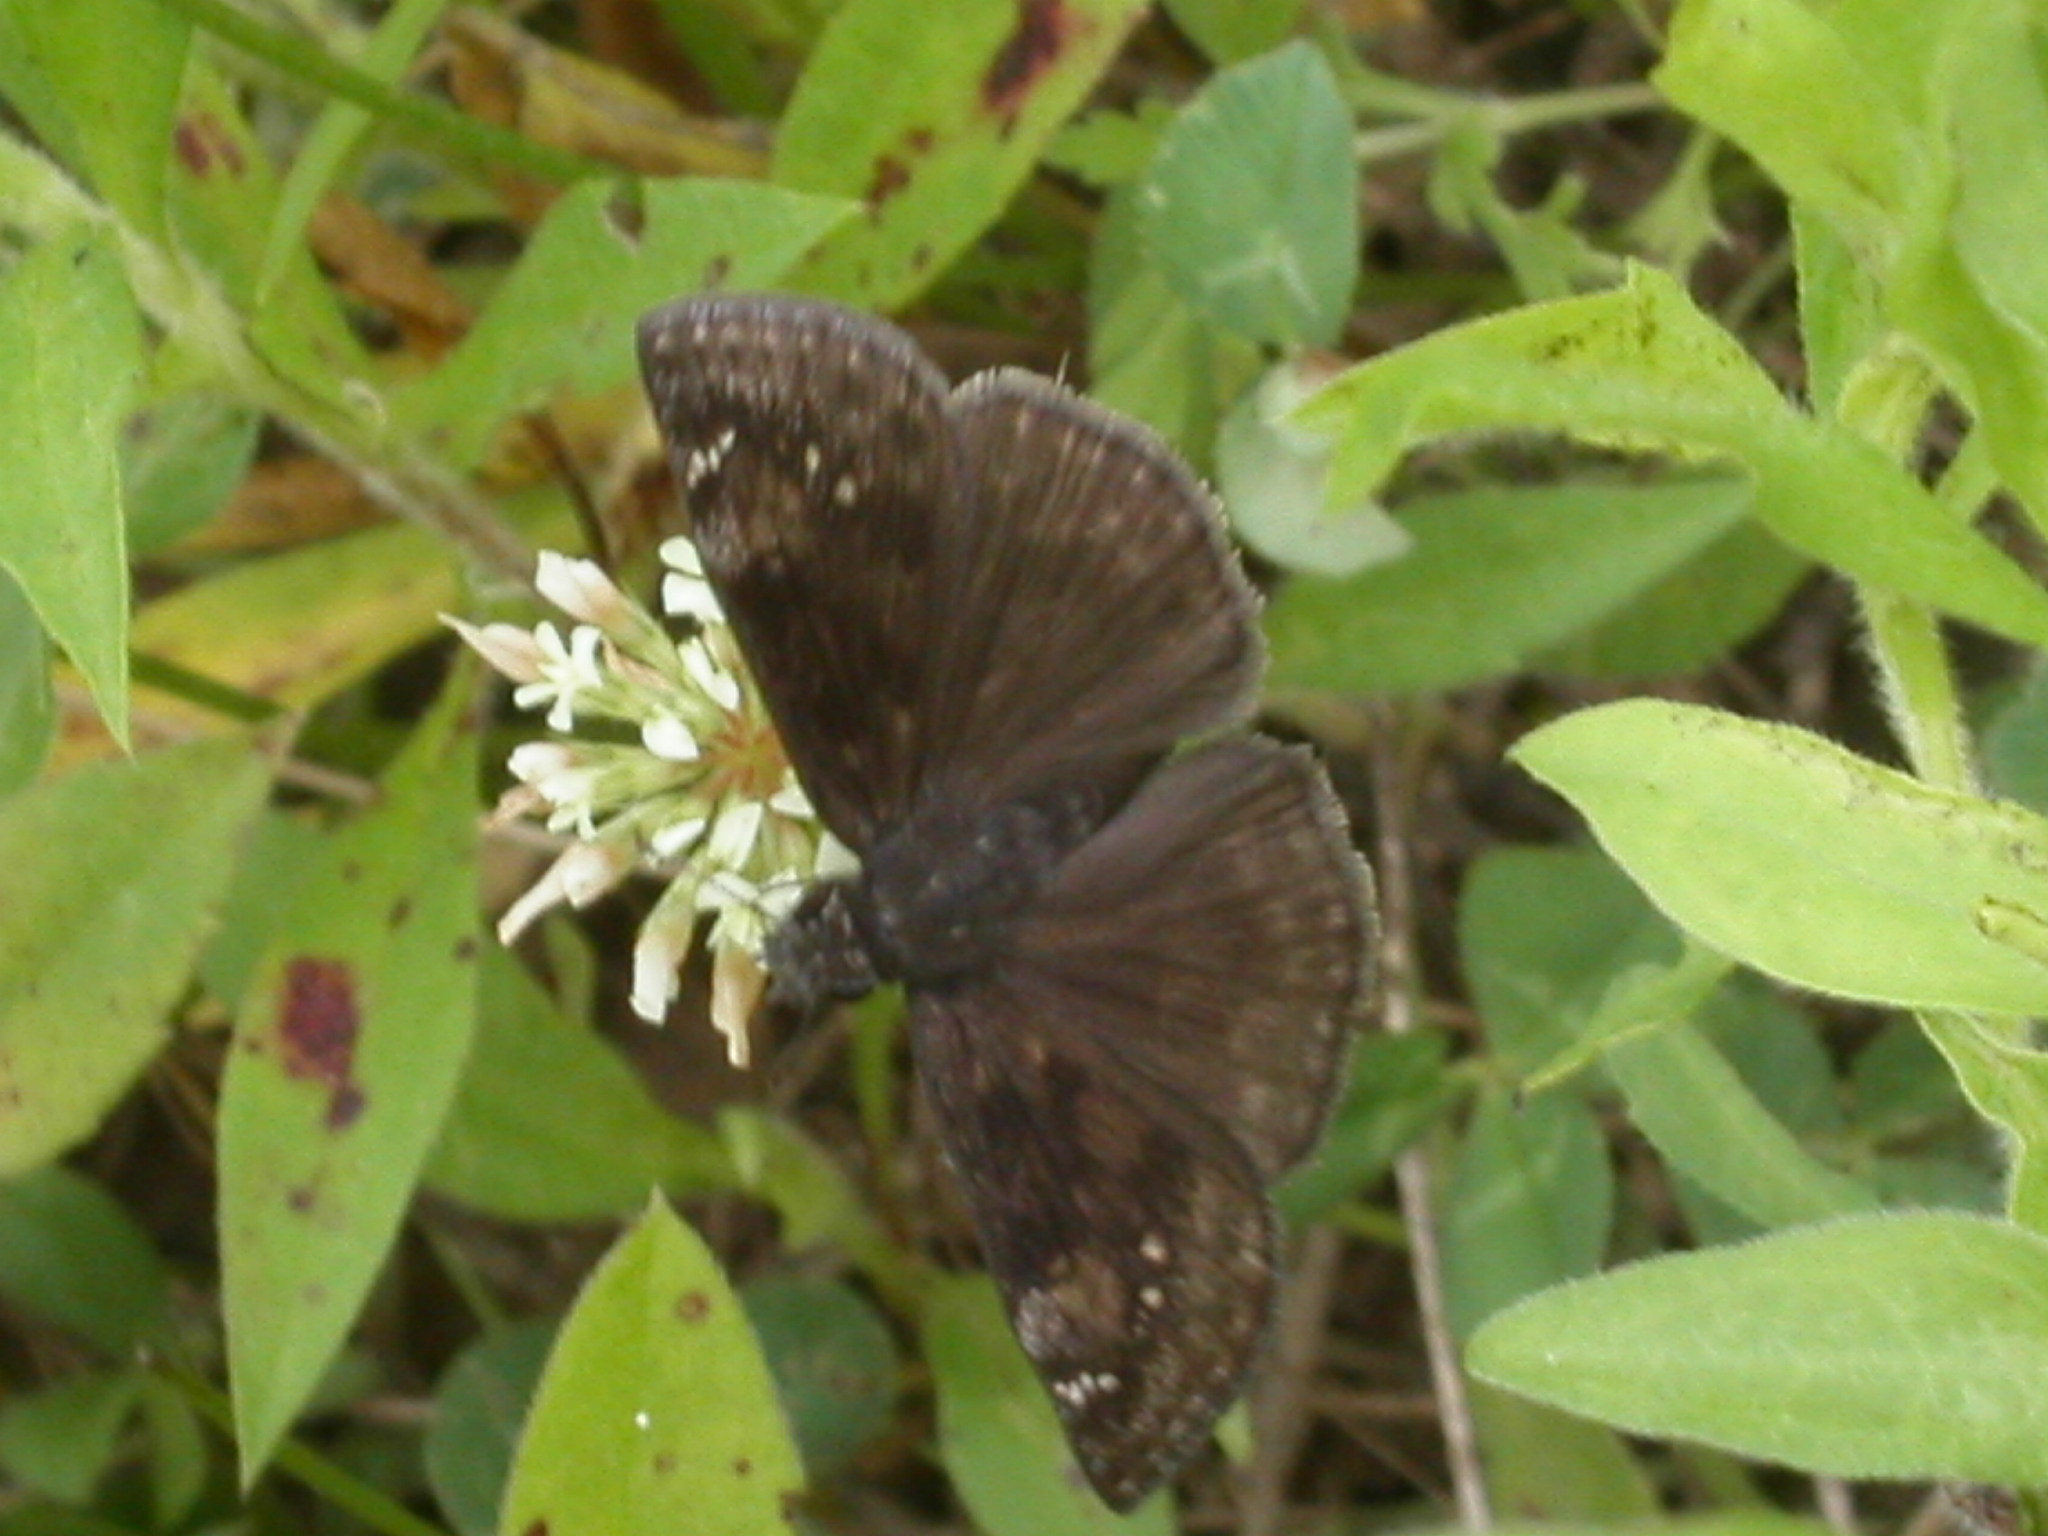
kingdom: Animalia
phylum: Arthropoda
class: Insecta
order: Lepidoptera
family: Hesperiidae
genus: Erynnis
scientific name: Erynnis baptisiae
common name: Wild indigo duskywing
